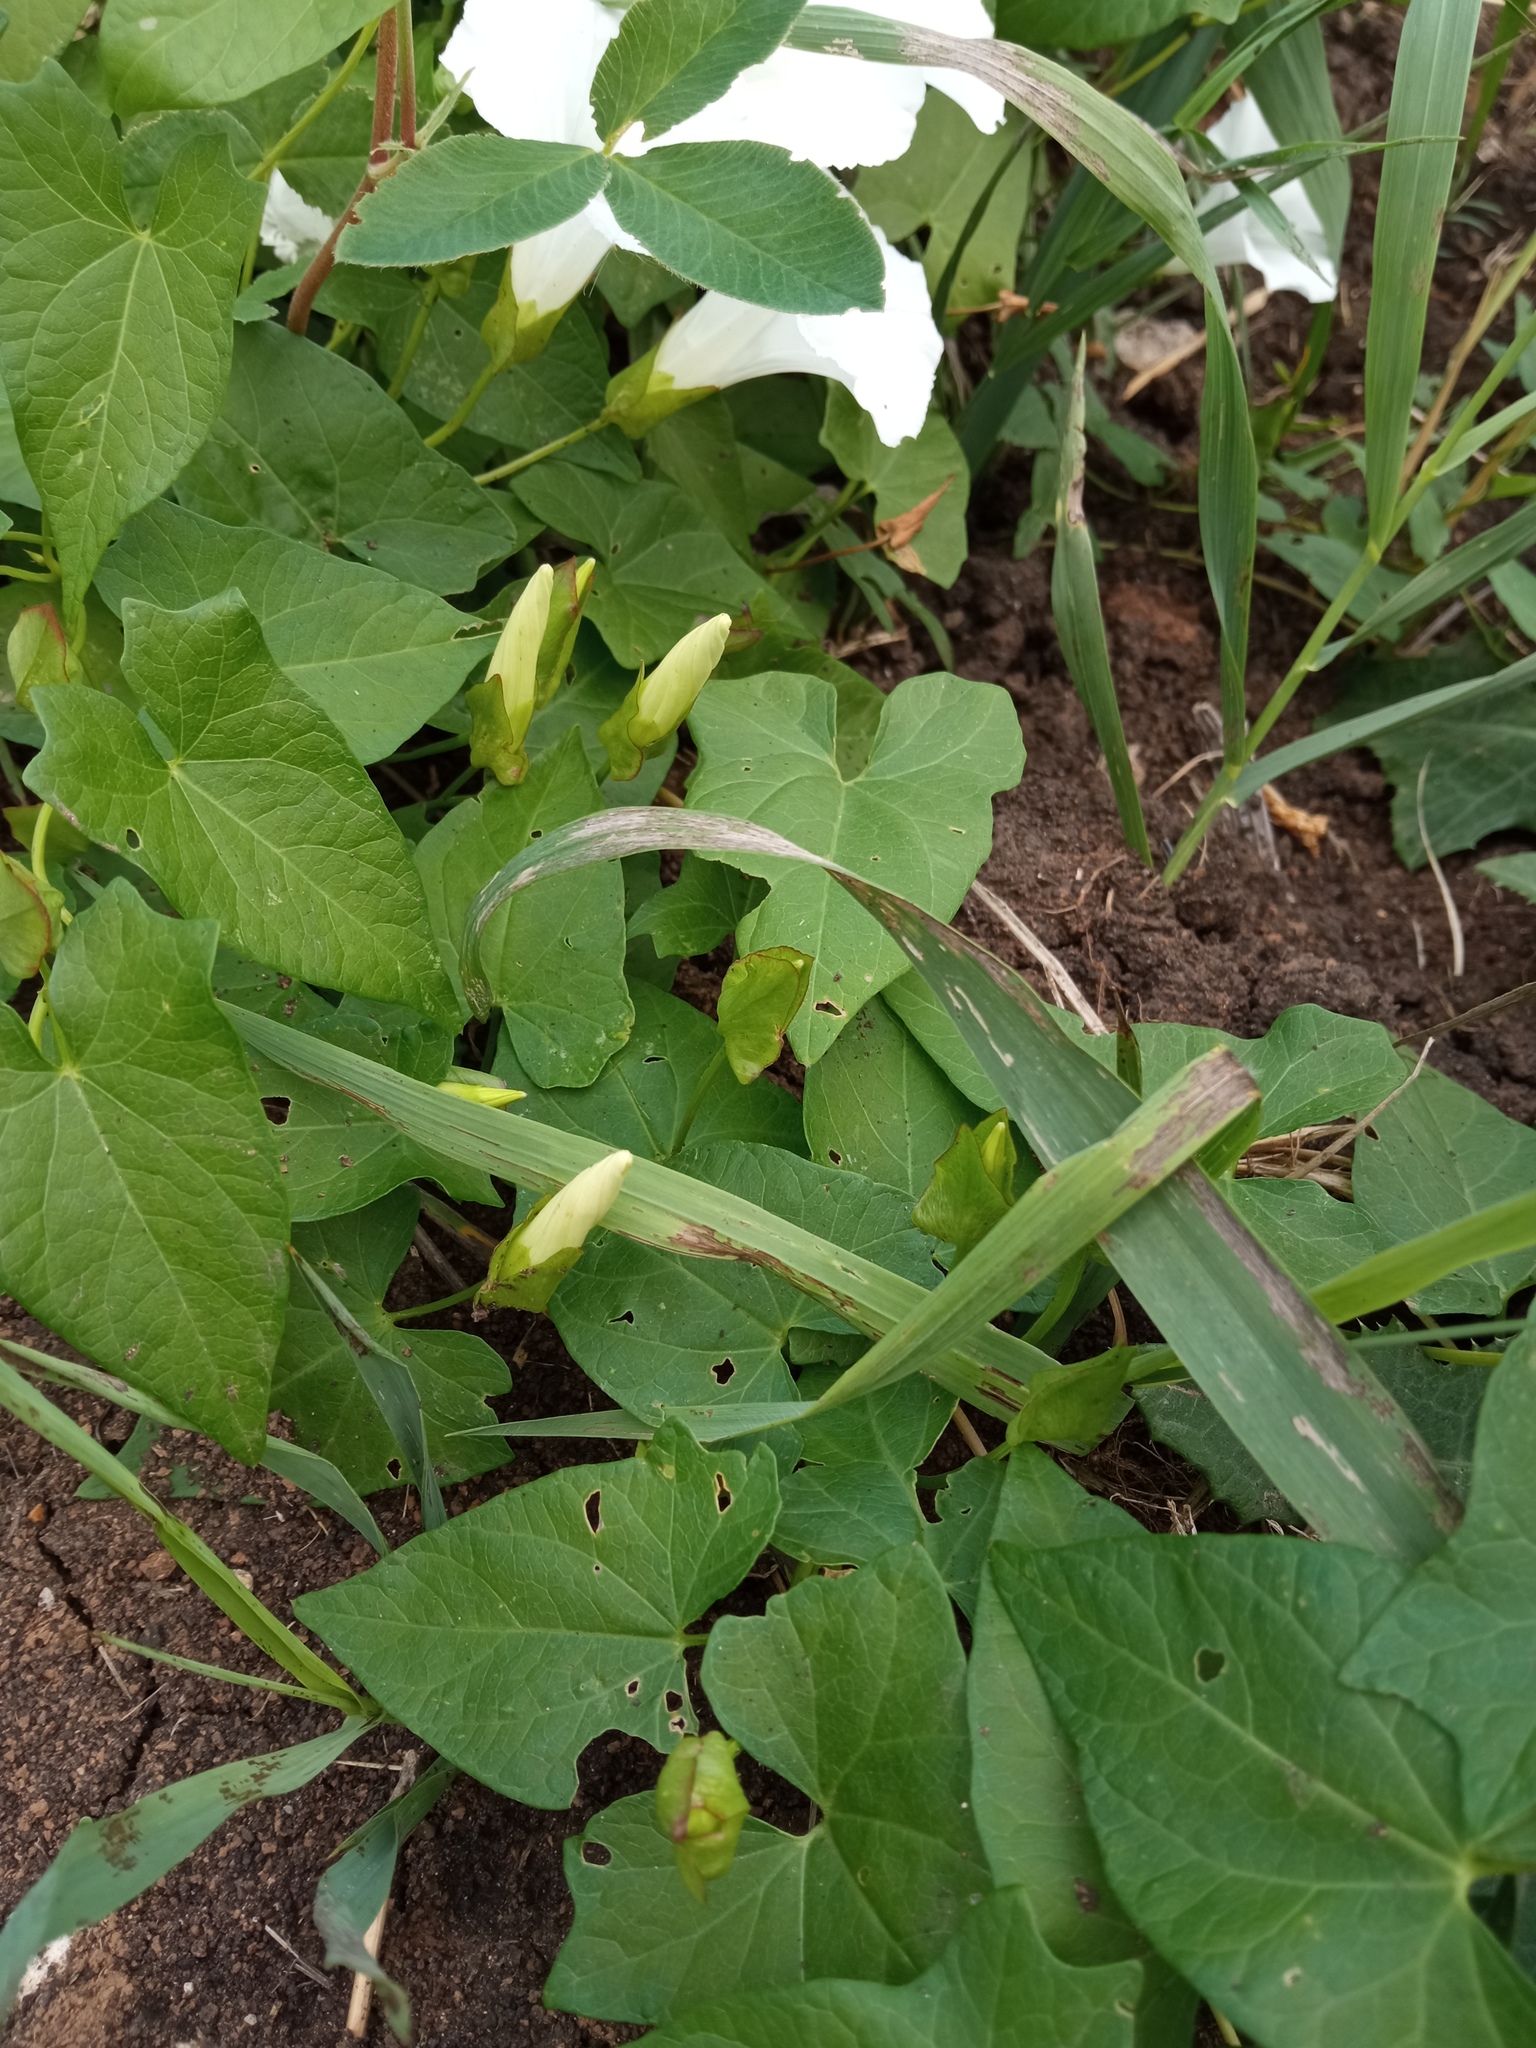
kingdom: Plantae
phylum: Tracheophyta
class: Magnoliopsida
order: Solanales
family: Convolvulaceae
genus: Calystegia
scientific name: Calystegia sepium
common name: Hedge bindweed
